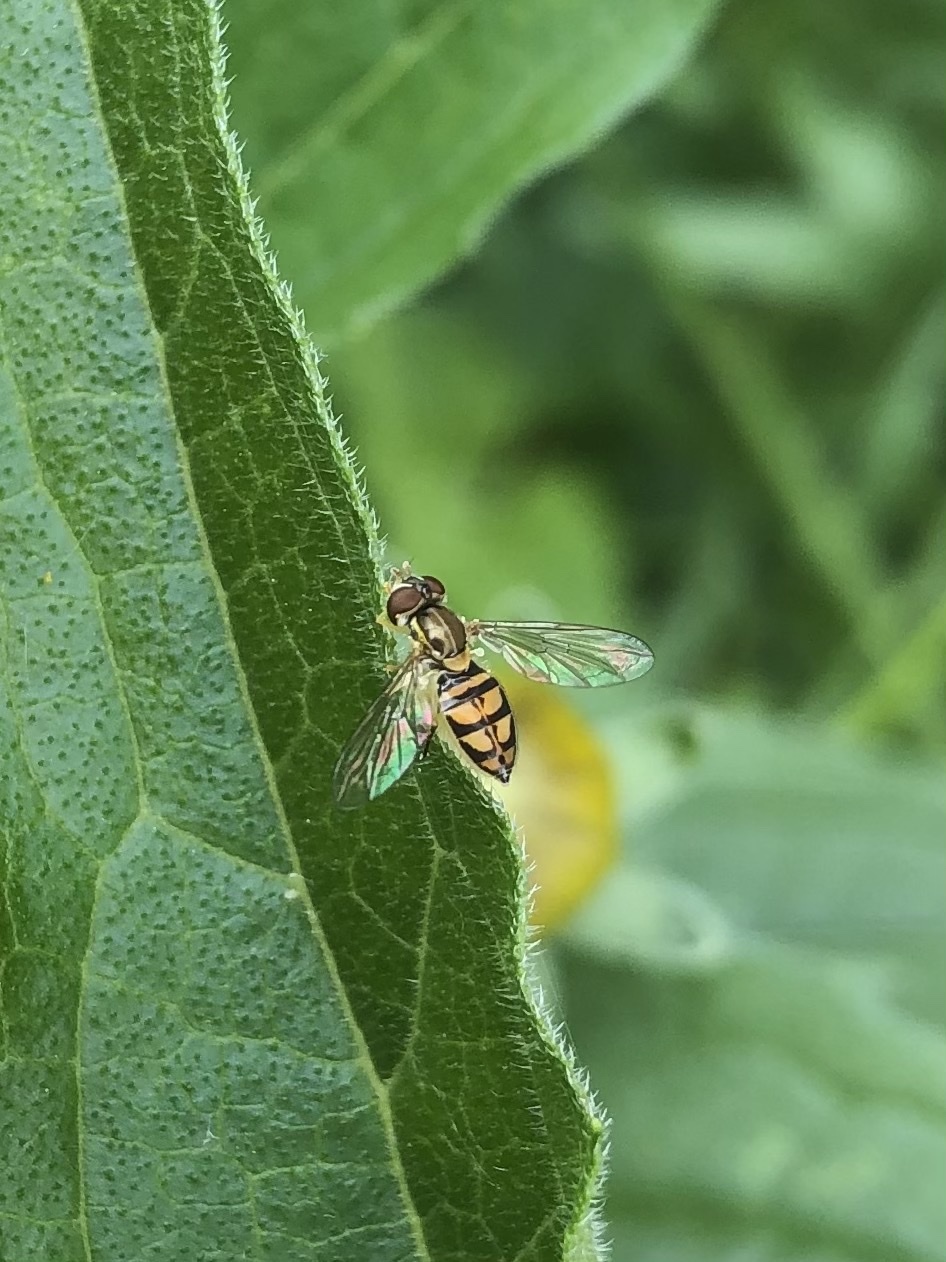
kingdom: Animalia
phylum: Arthropoda
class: Insecta
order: Diptera
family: Syrphidae
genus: Toxomerus
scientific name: Toxomerus marginatus
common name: Syrphid fly
